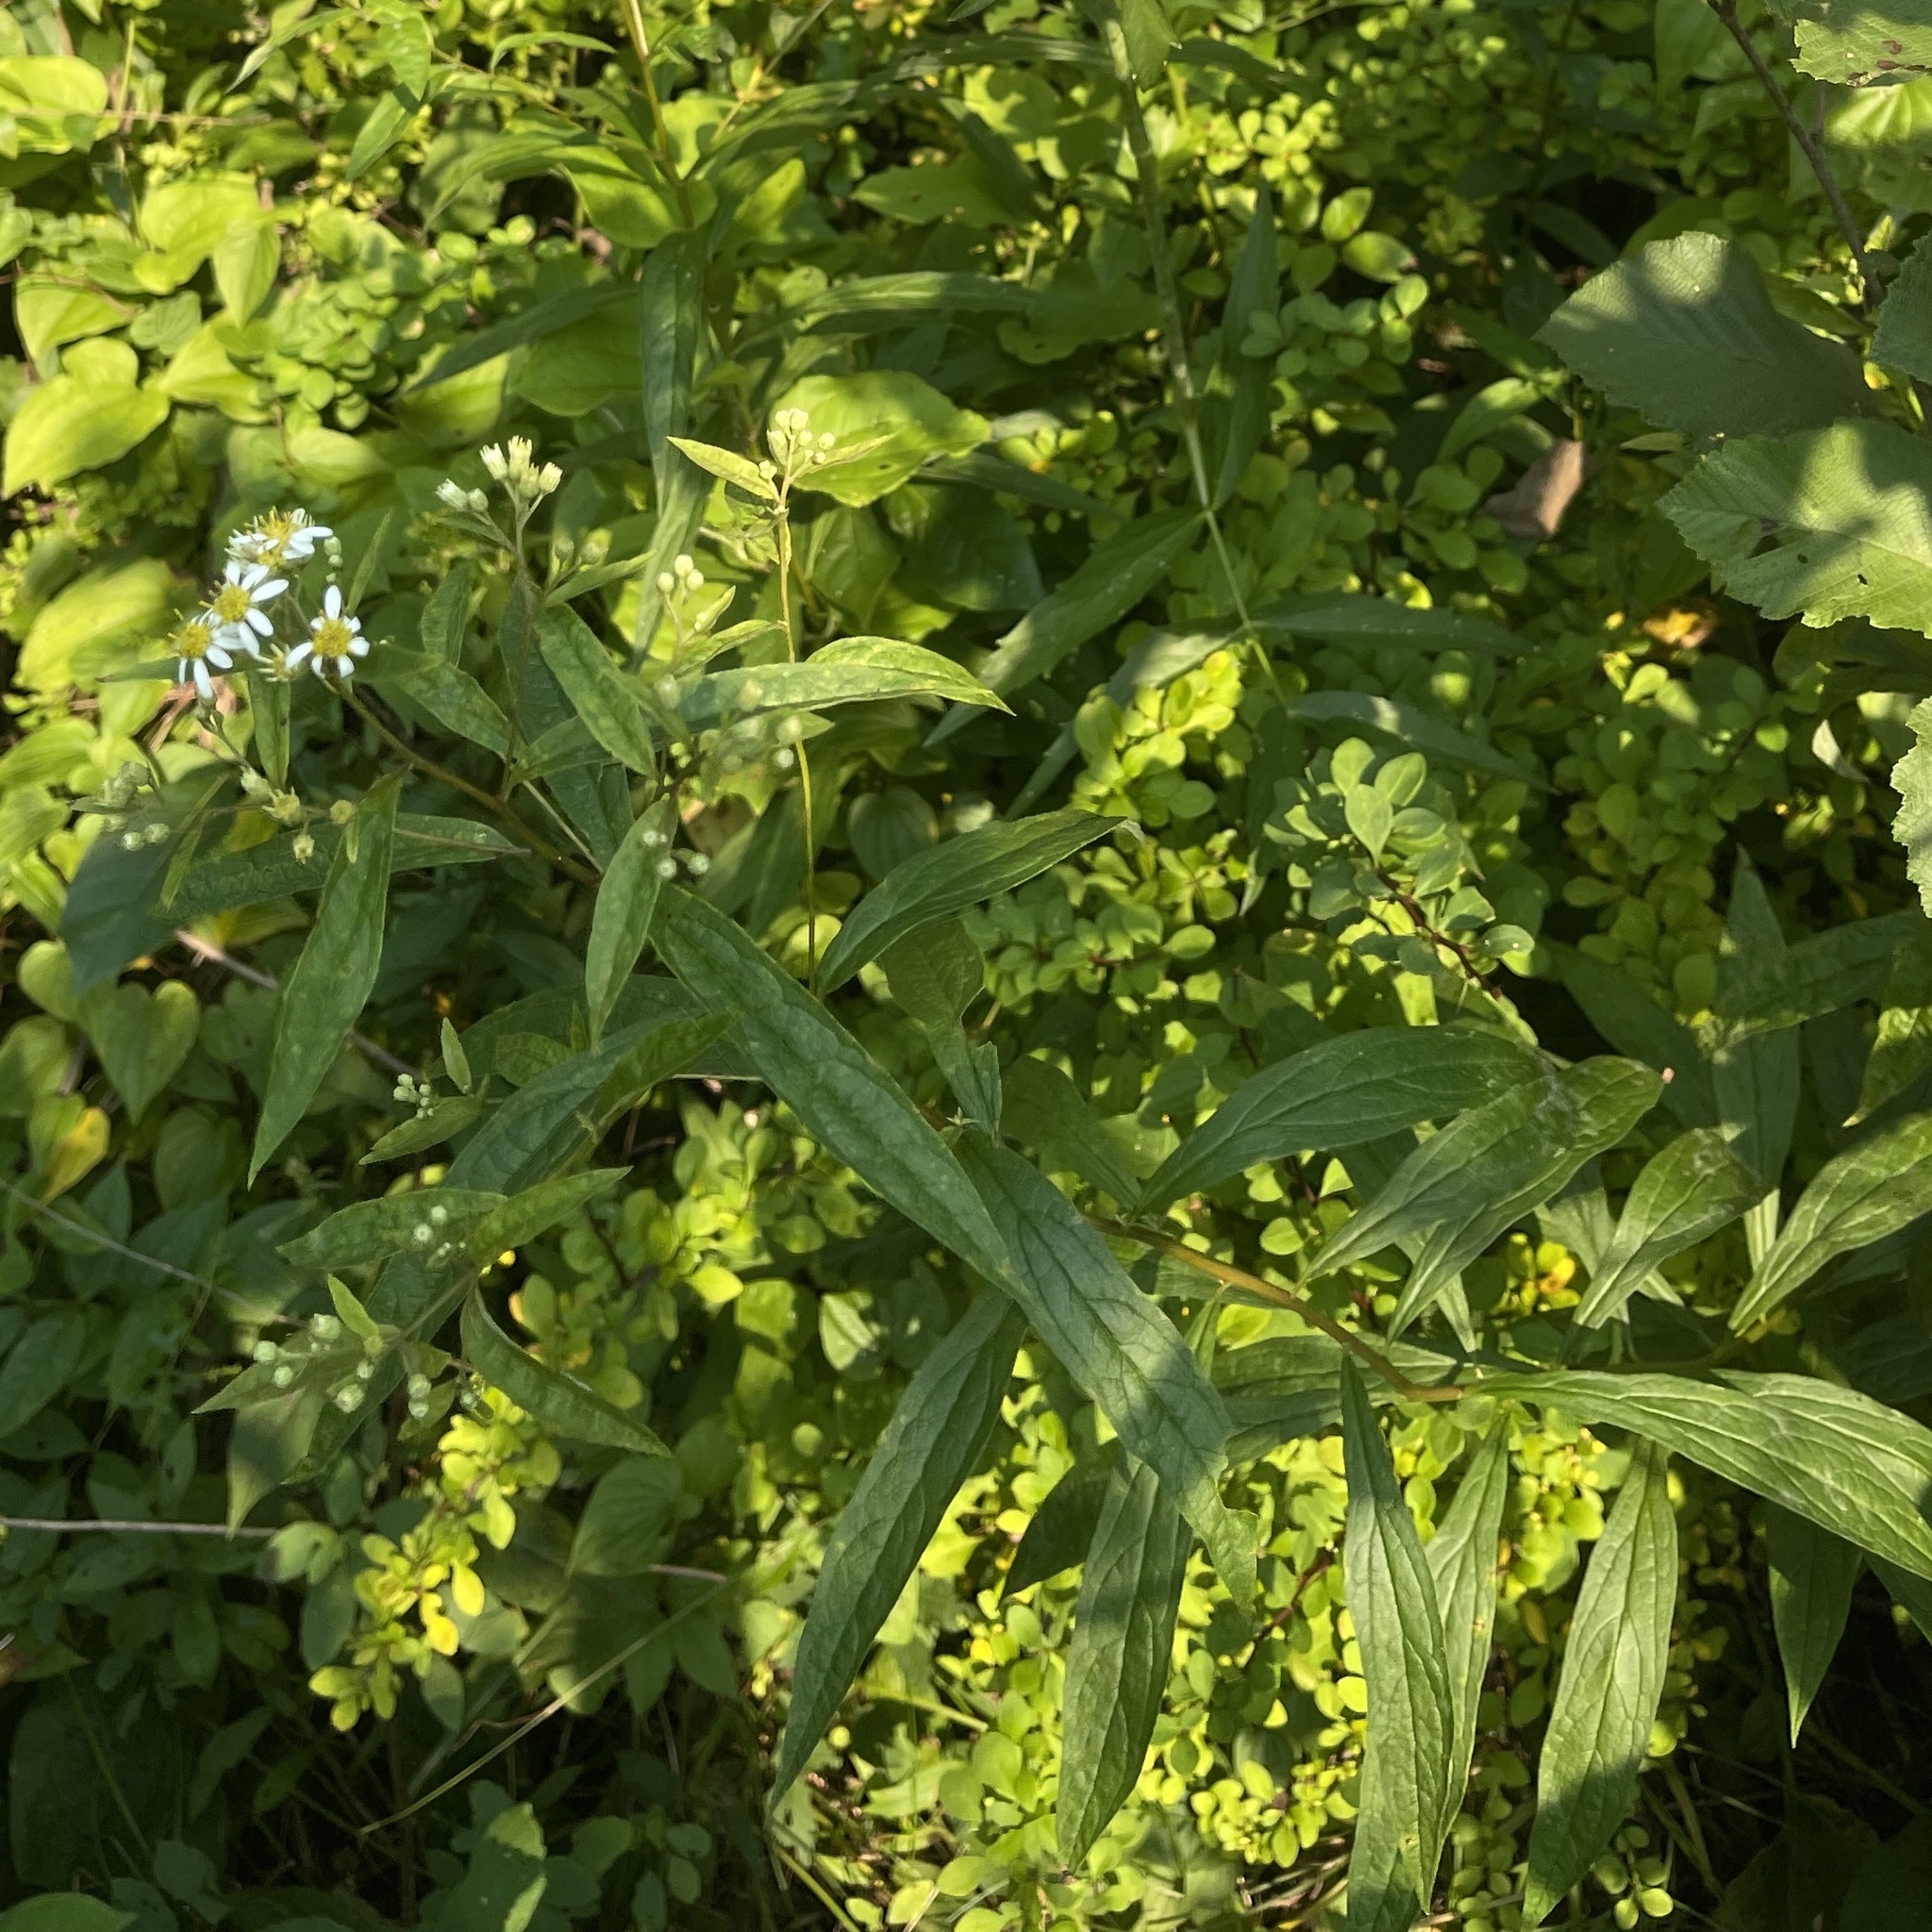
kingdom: Plantae
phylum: Tracheophyta
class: Magnoliopsida
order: Asterales
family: Asteraceae
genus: Doellingeria
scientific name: Doellingeria umbellata
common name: Flat-top white aster
